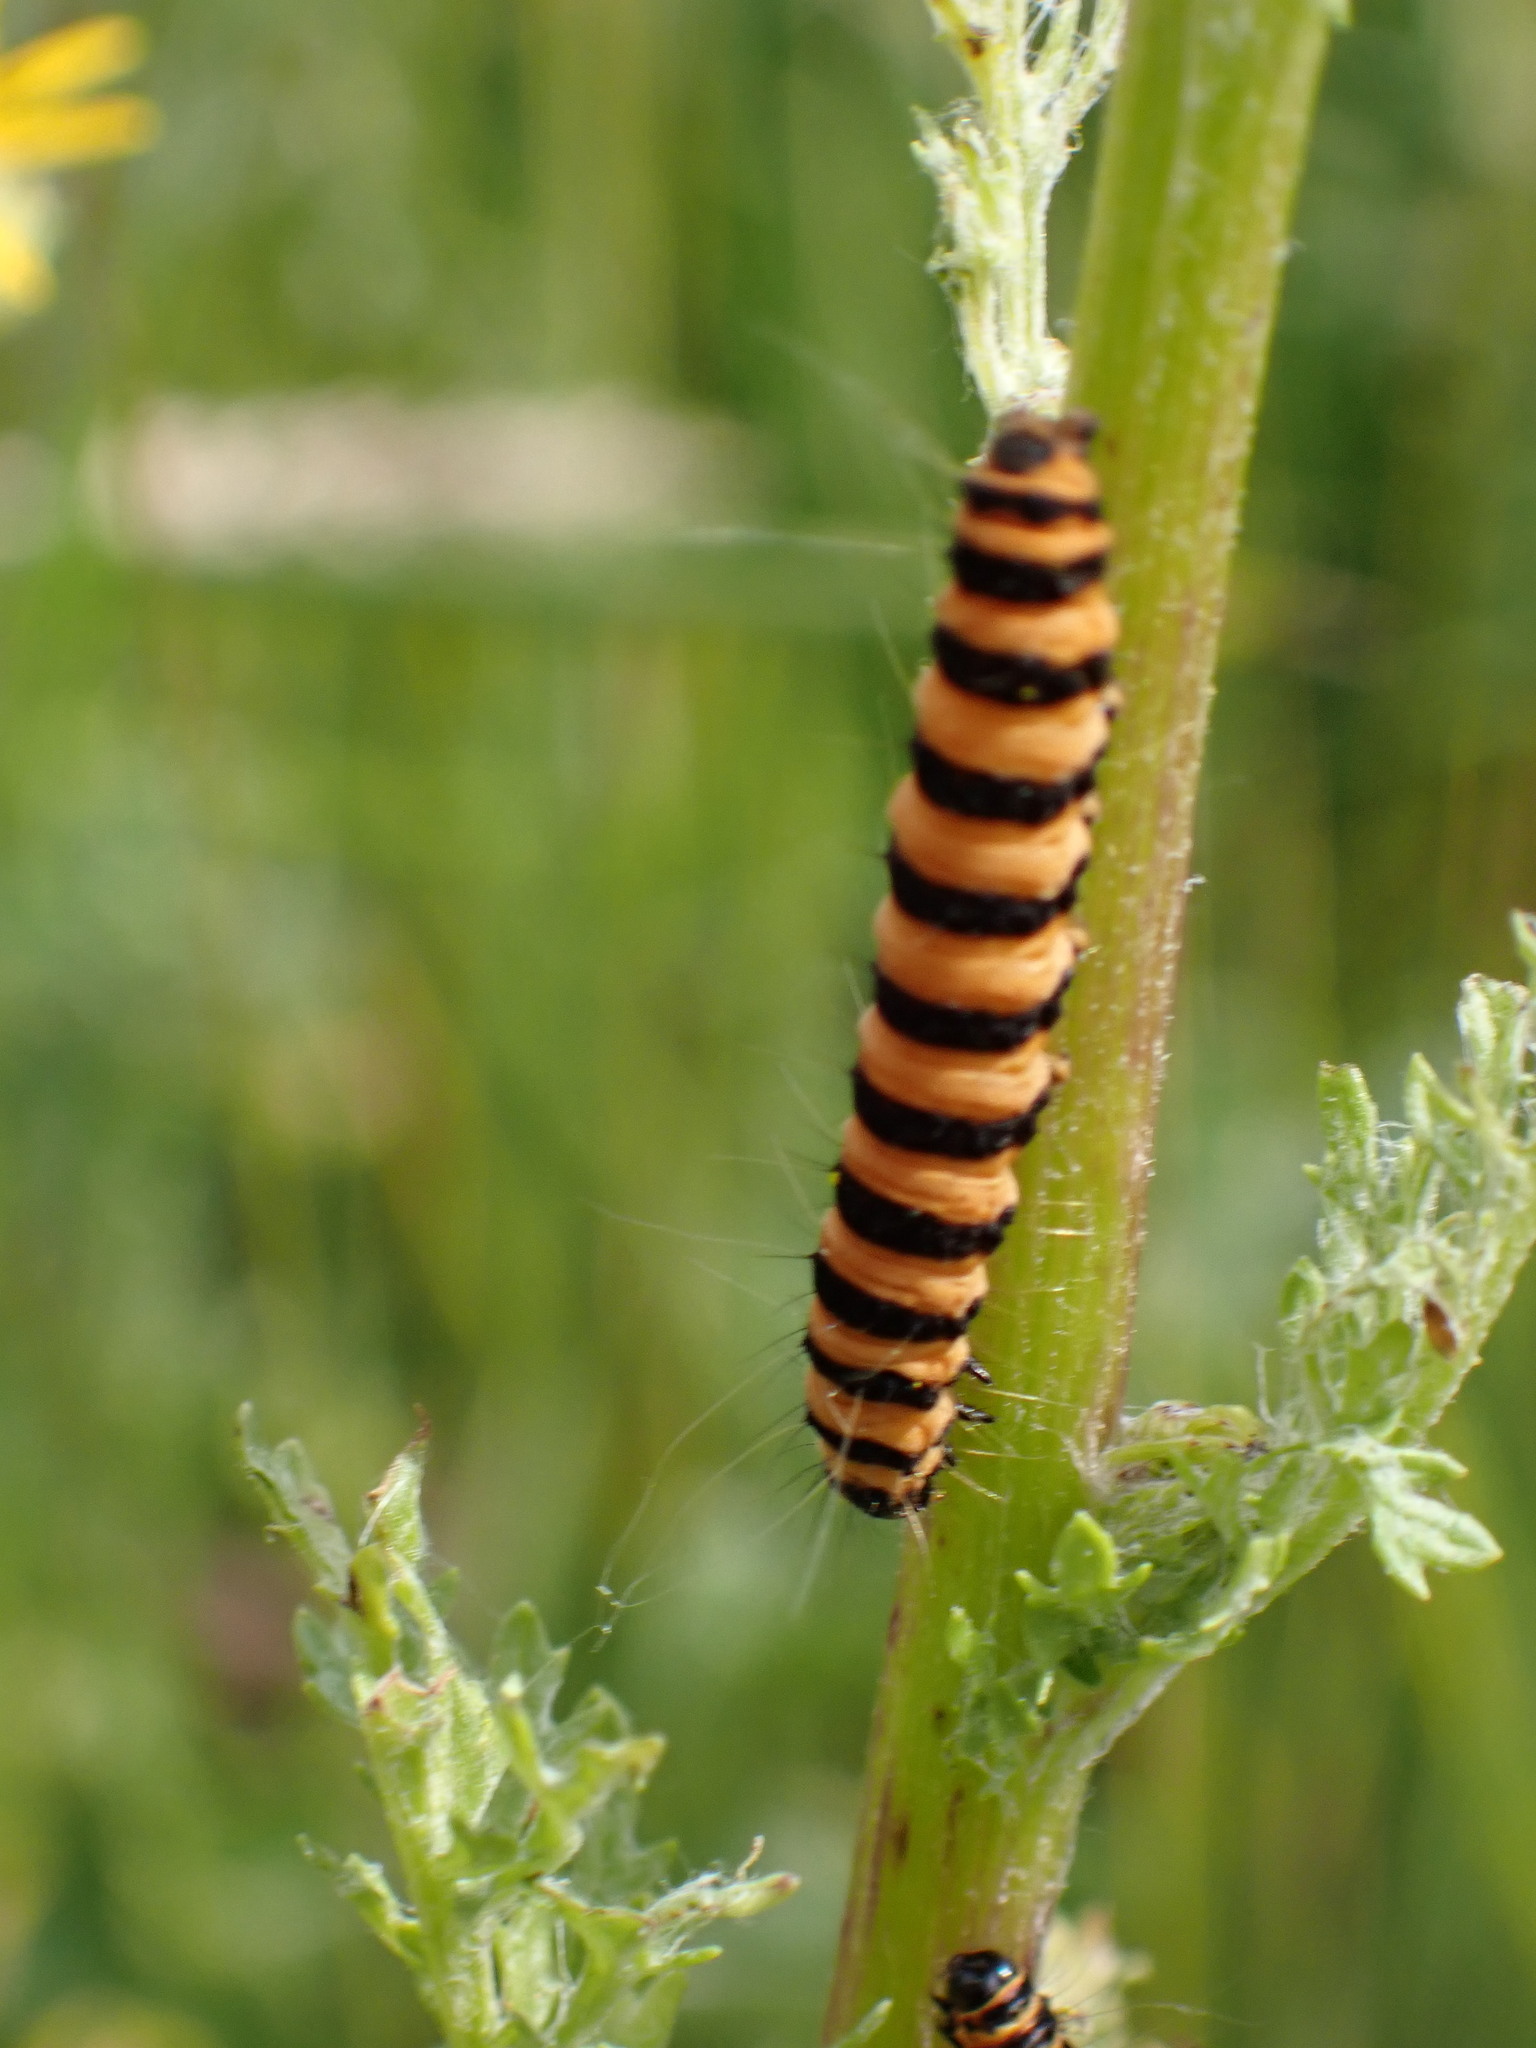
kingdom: Animalia
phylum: Arthropoda
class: Insecta
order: Lepidoptera
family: Erebidae
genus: Tyria
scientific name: Tyria jacobaeae
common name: Cinnabar
